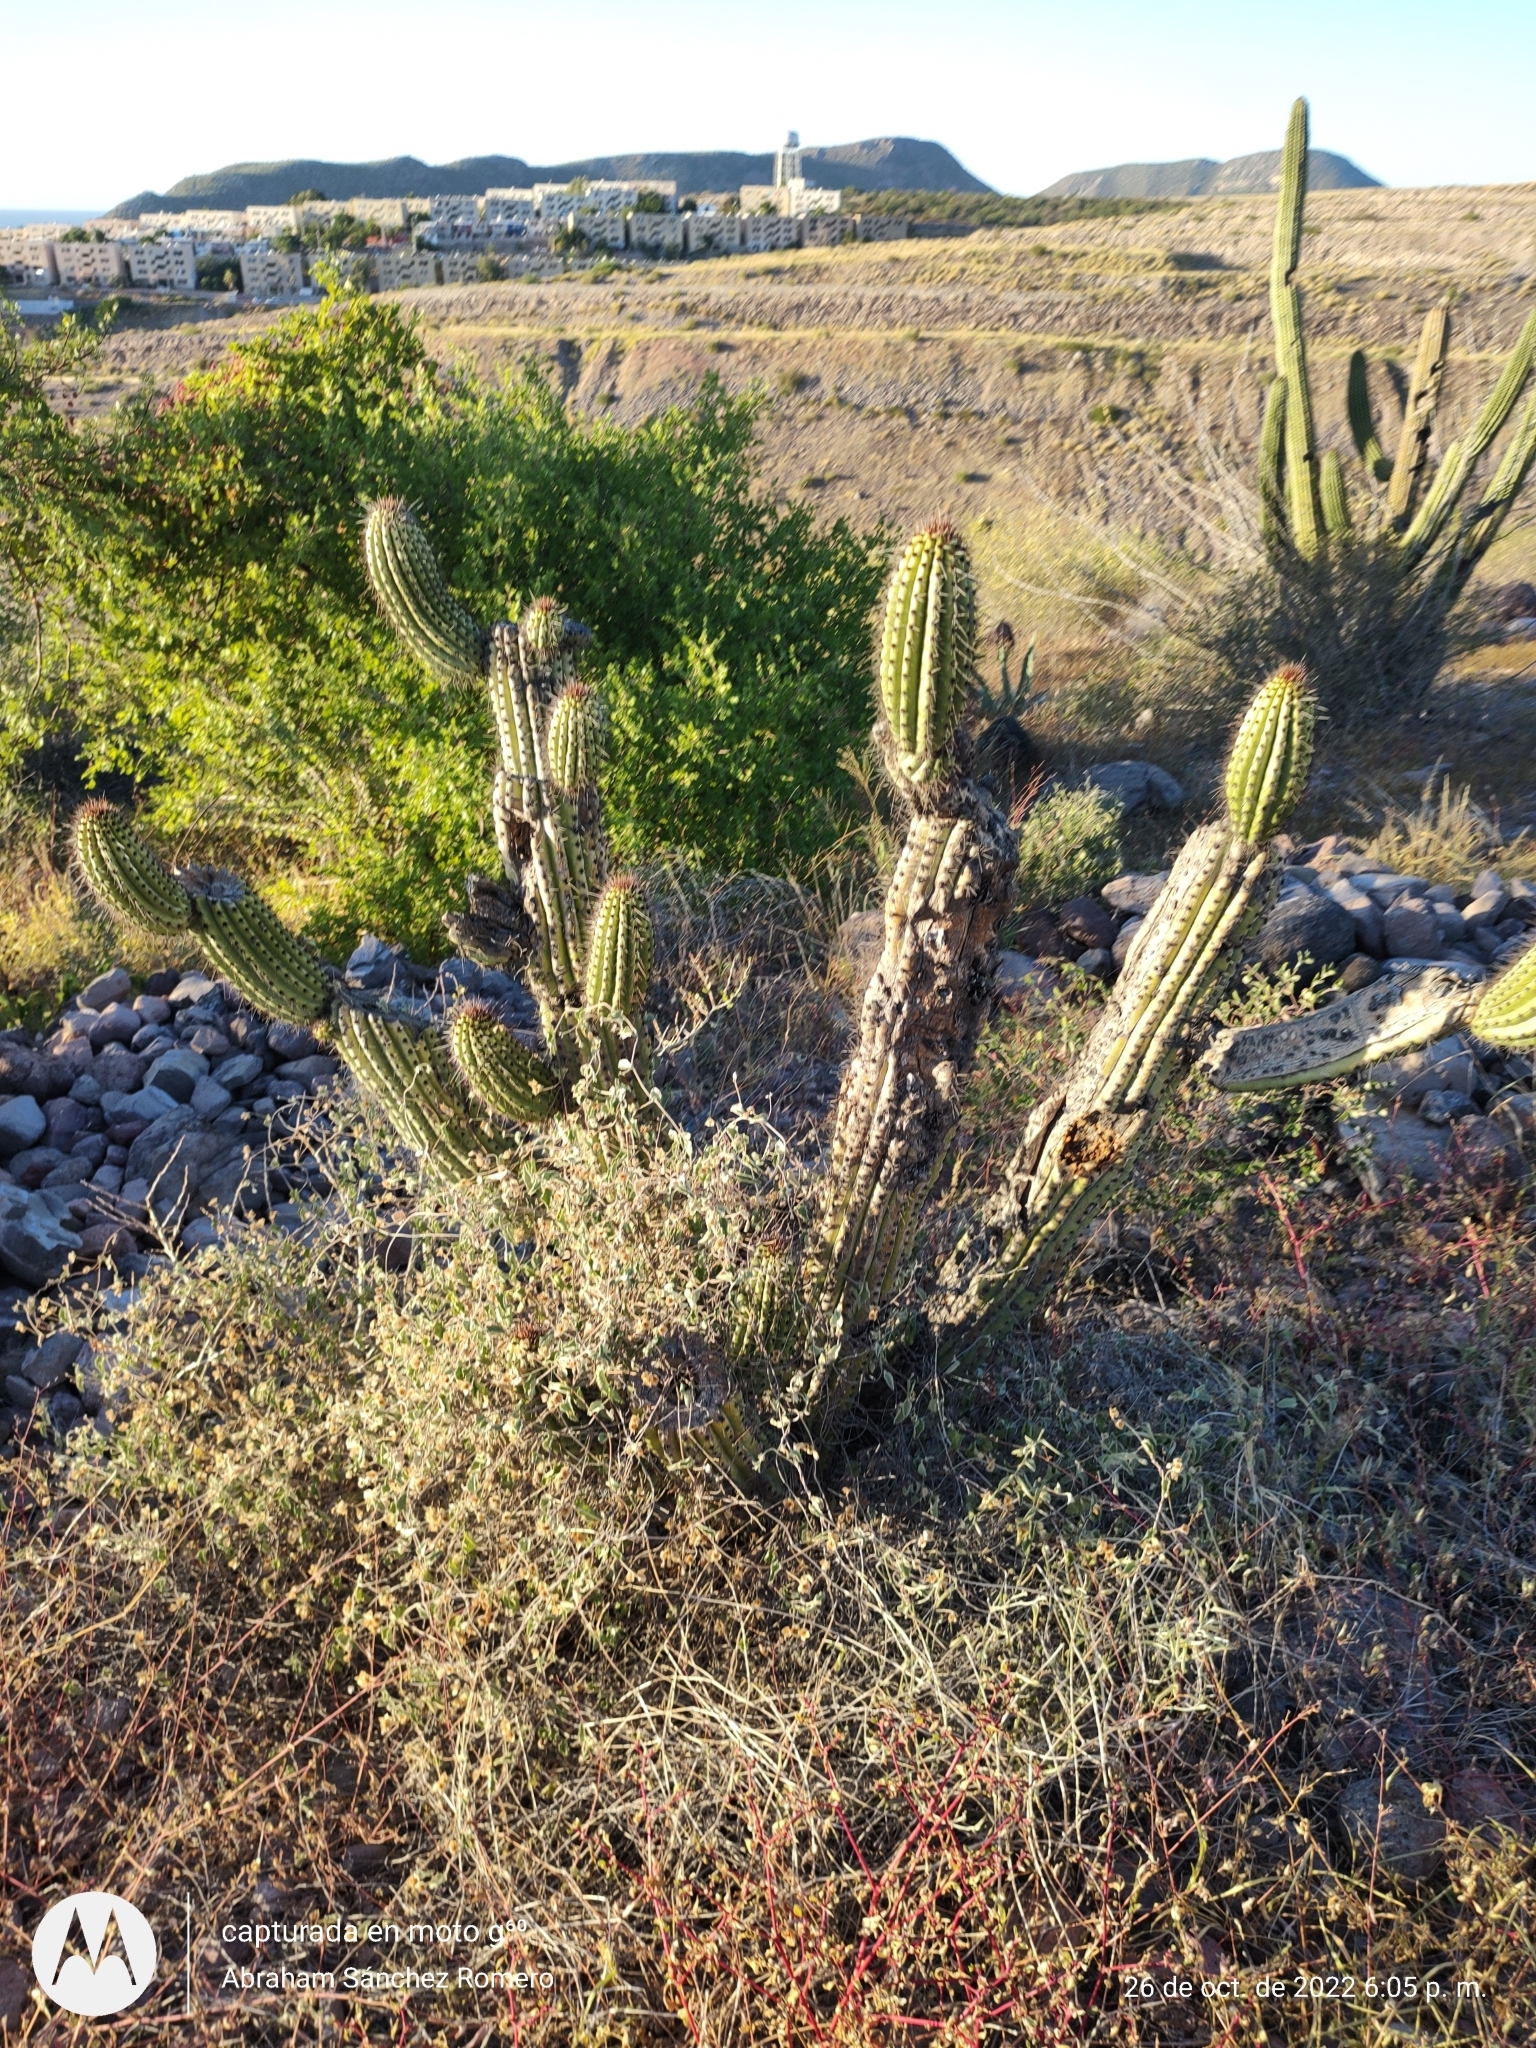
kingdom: Plantae
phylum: Tracheophyta
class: Magnoliopsida
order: Caryophyllales
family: Cactaceae
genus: Stenocereus
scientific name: Stenocereus thurberi
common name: Organ pipe cactus
